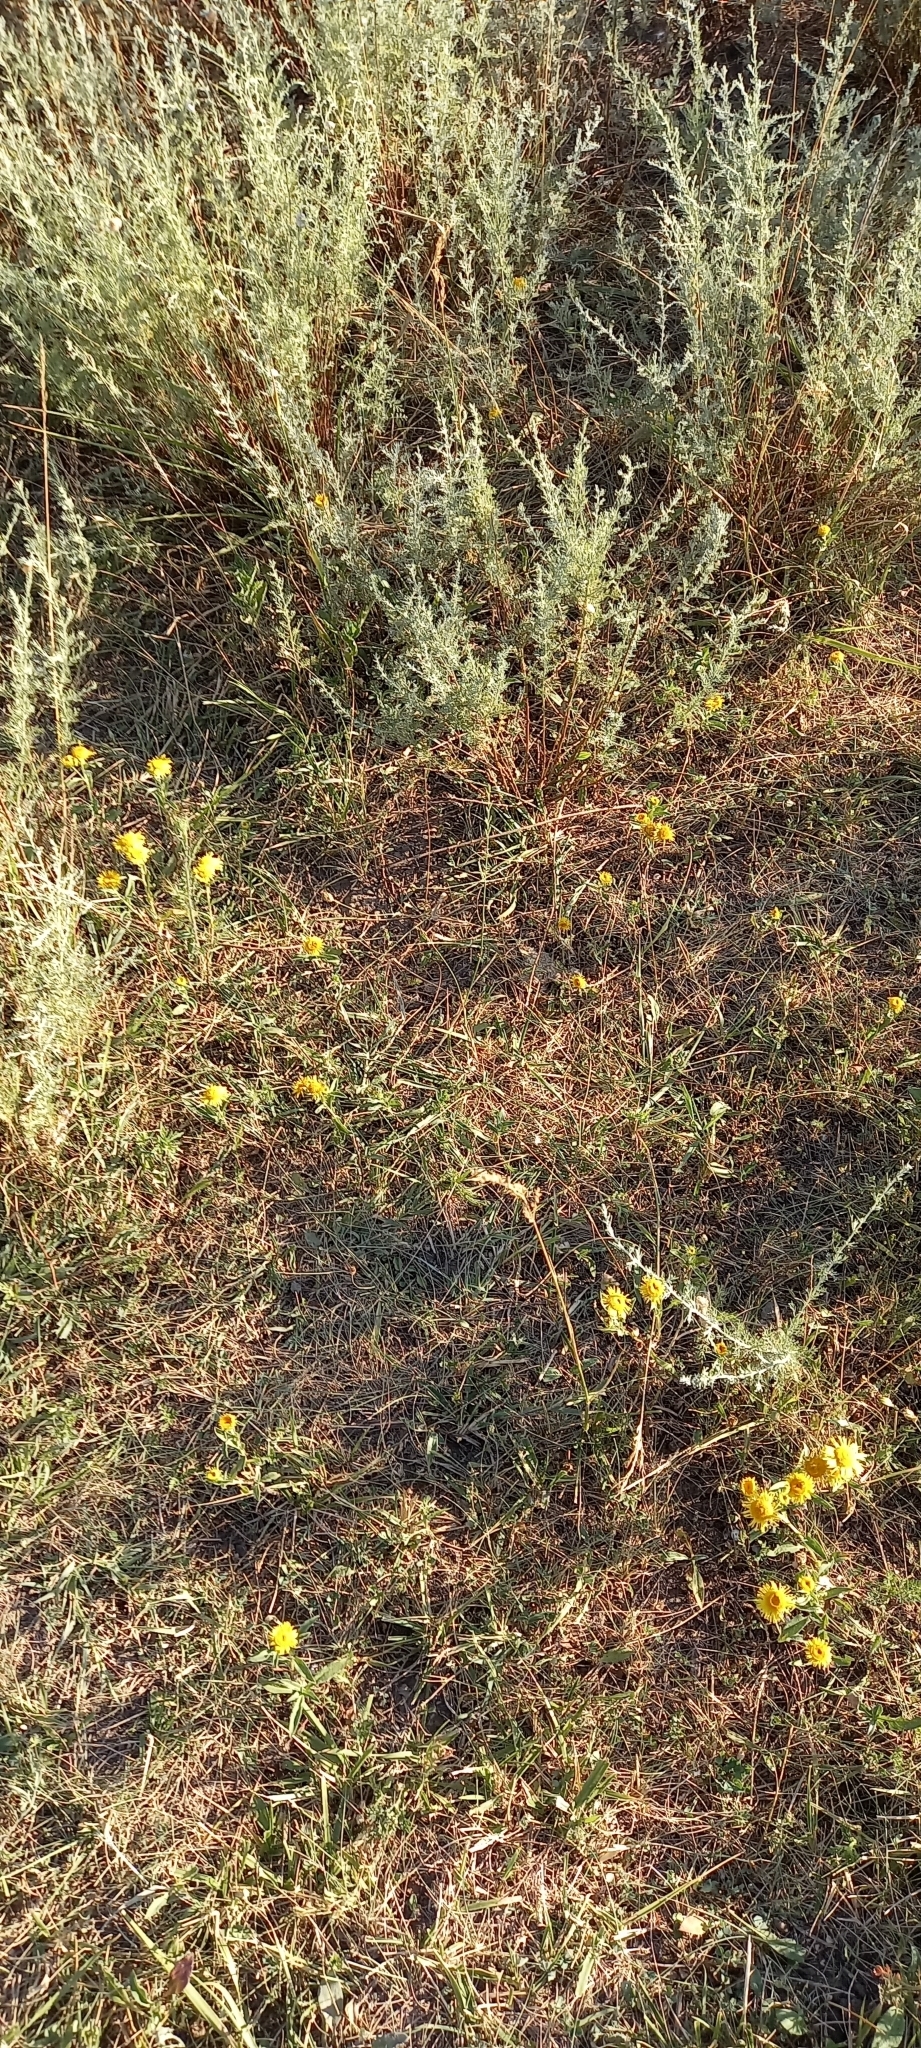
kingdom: Plantae
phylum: Tracheophyta
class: Magnoliopsida
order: Asterales
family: Asteraceae
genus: Pentanema
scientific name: Pentanema britannicum
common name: British elecampane
